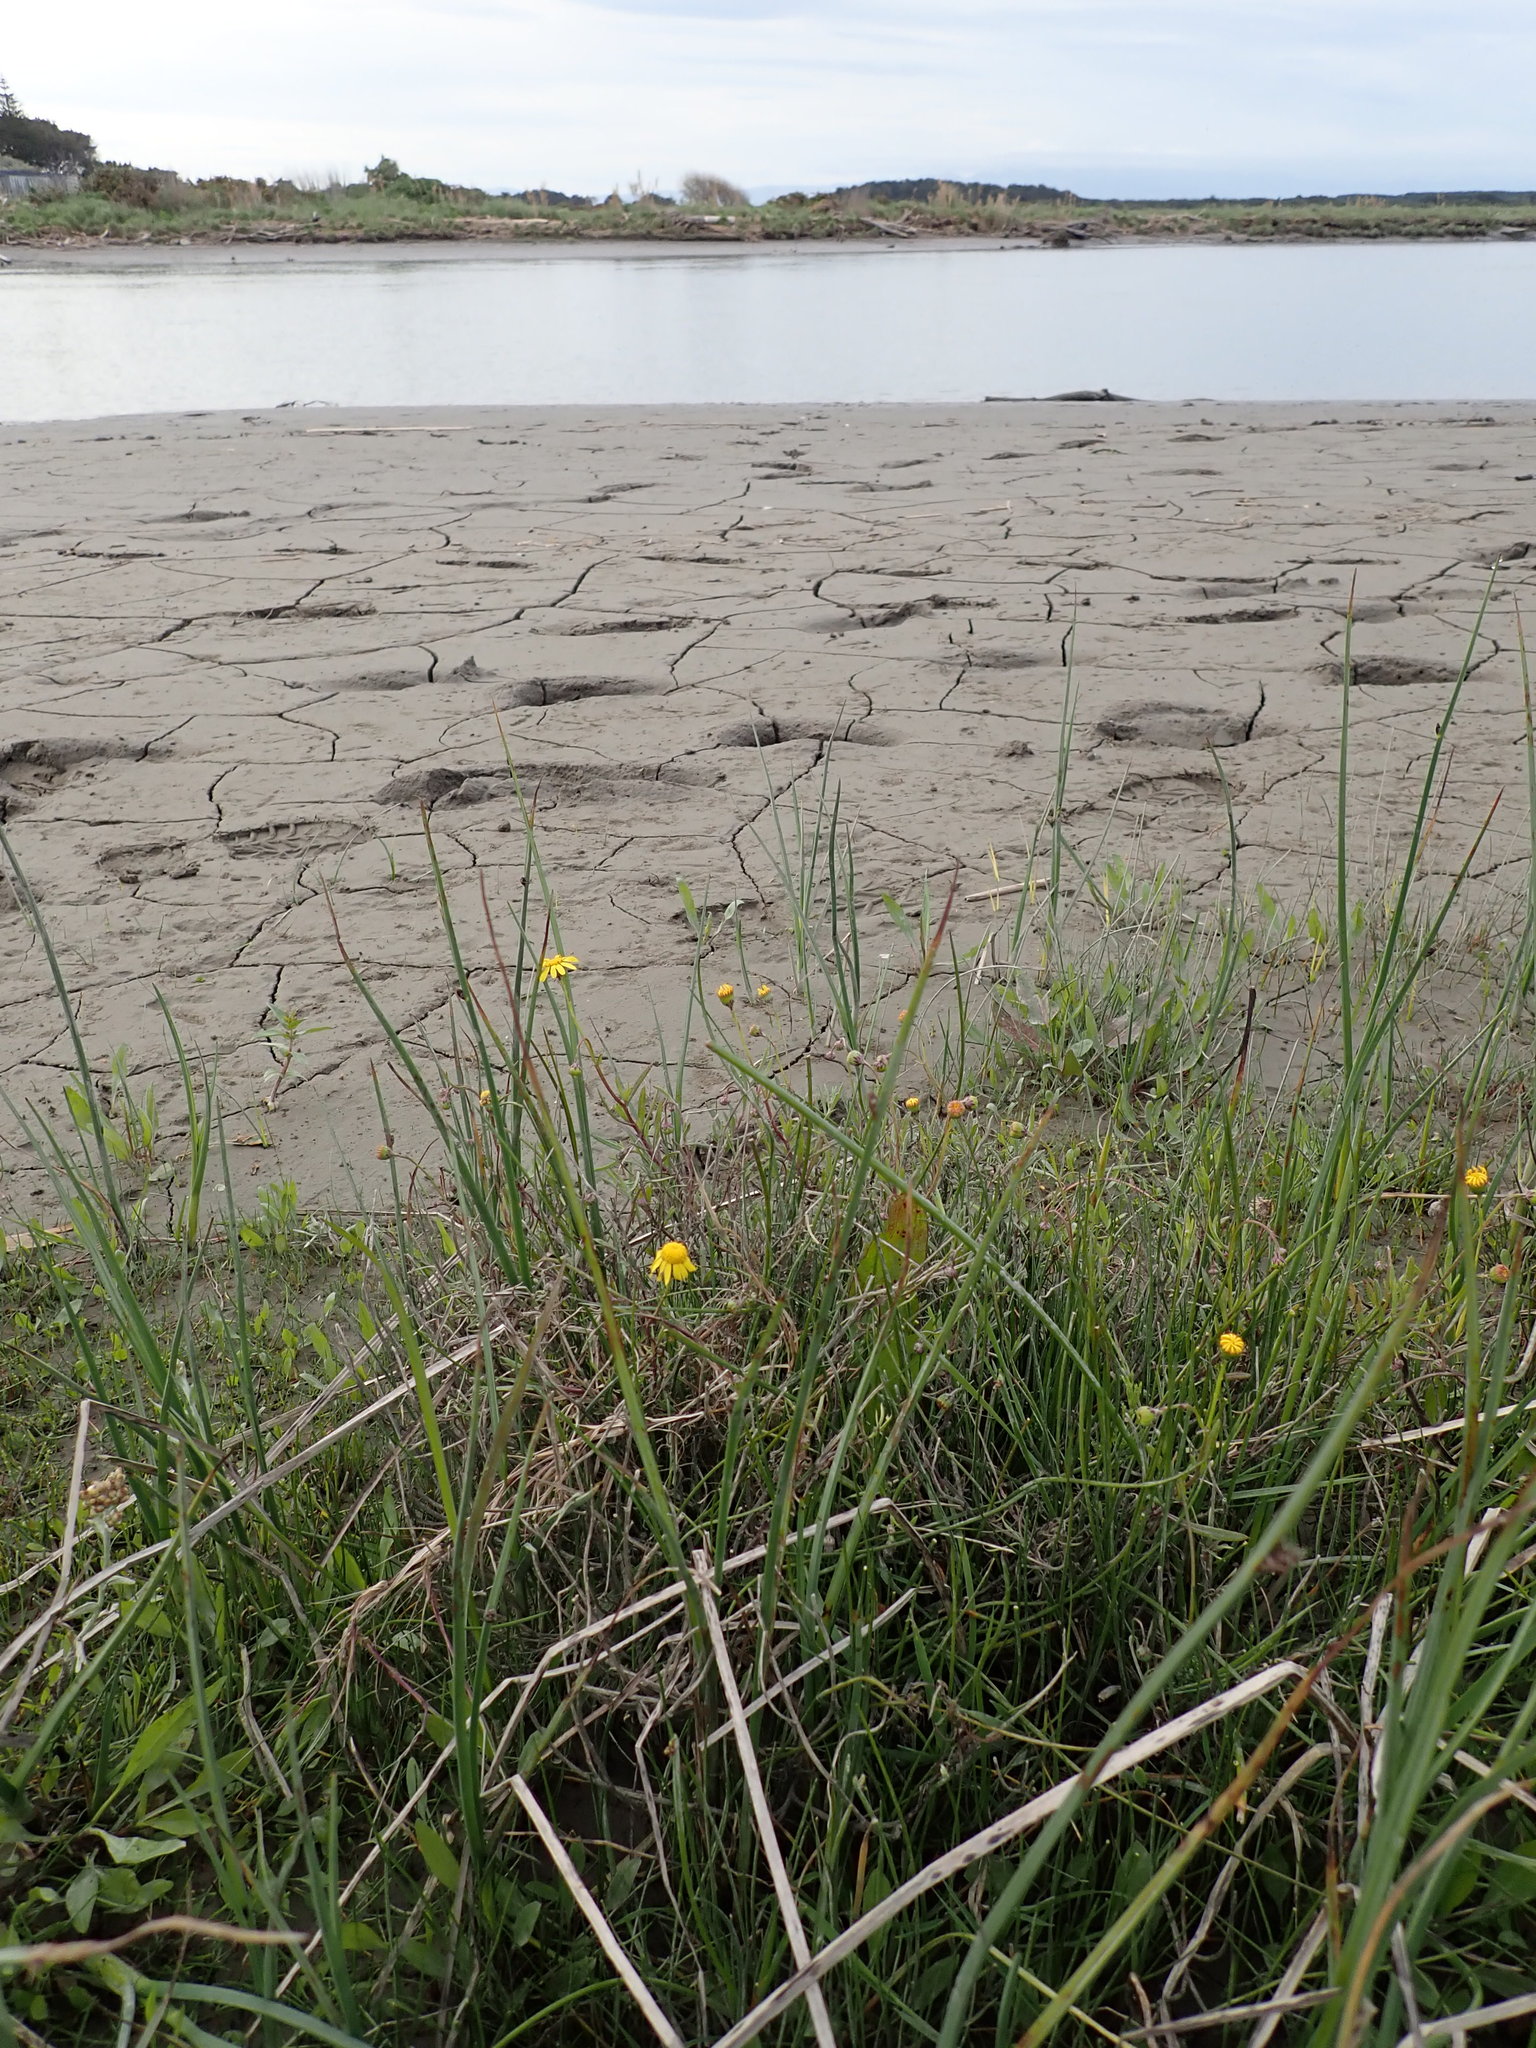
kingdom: Plantae
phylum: Tracheophyta
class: Magnoliopsida
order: Asterales
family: Asteraceae
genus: Senecio
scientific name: Senecio skirrhodon
